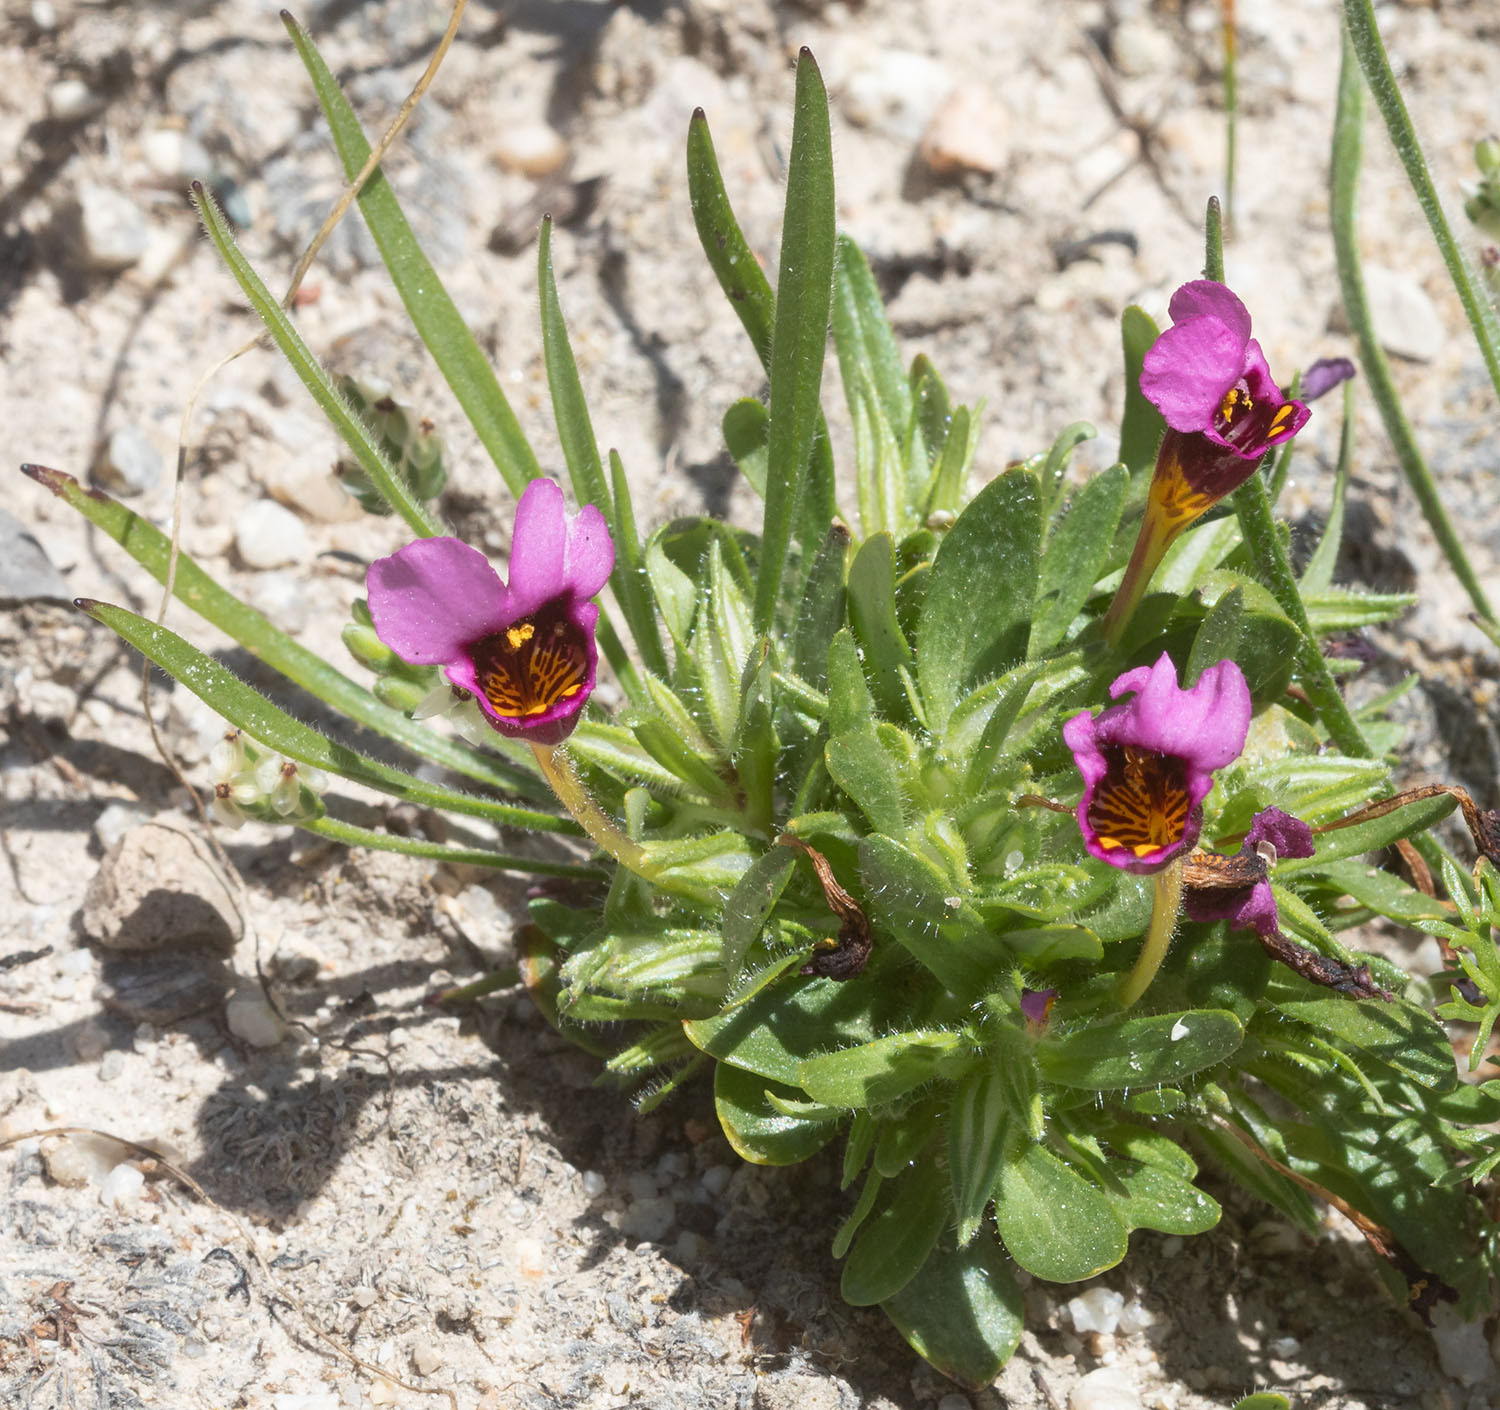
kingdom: Plantae
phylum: Tracheophyta
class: Magnoliopsida
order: Lamiales
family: Phrymaceae
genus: Diplacus
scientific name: Diplacus douglasii
